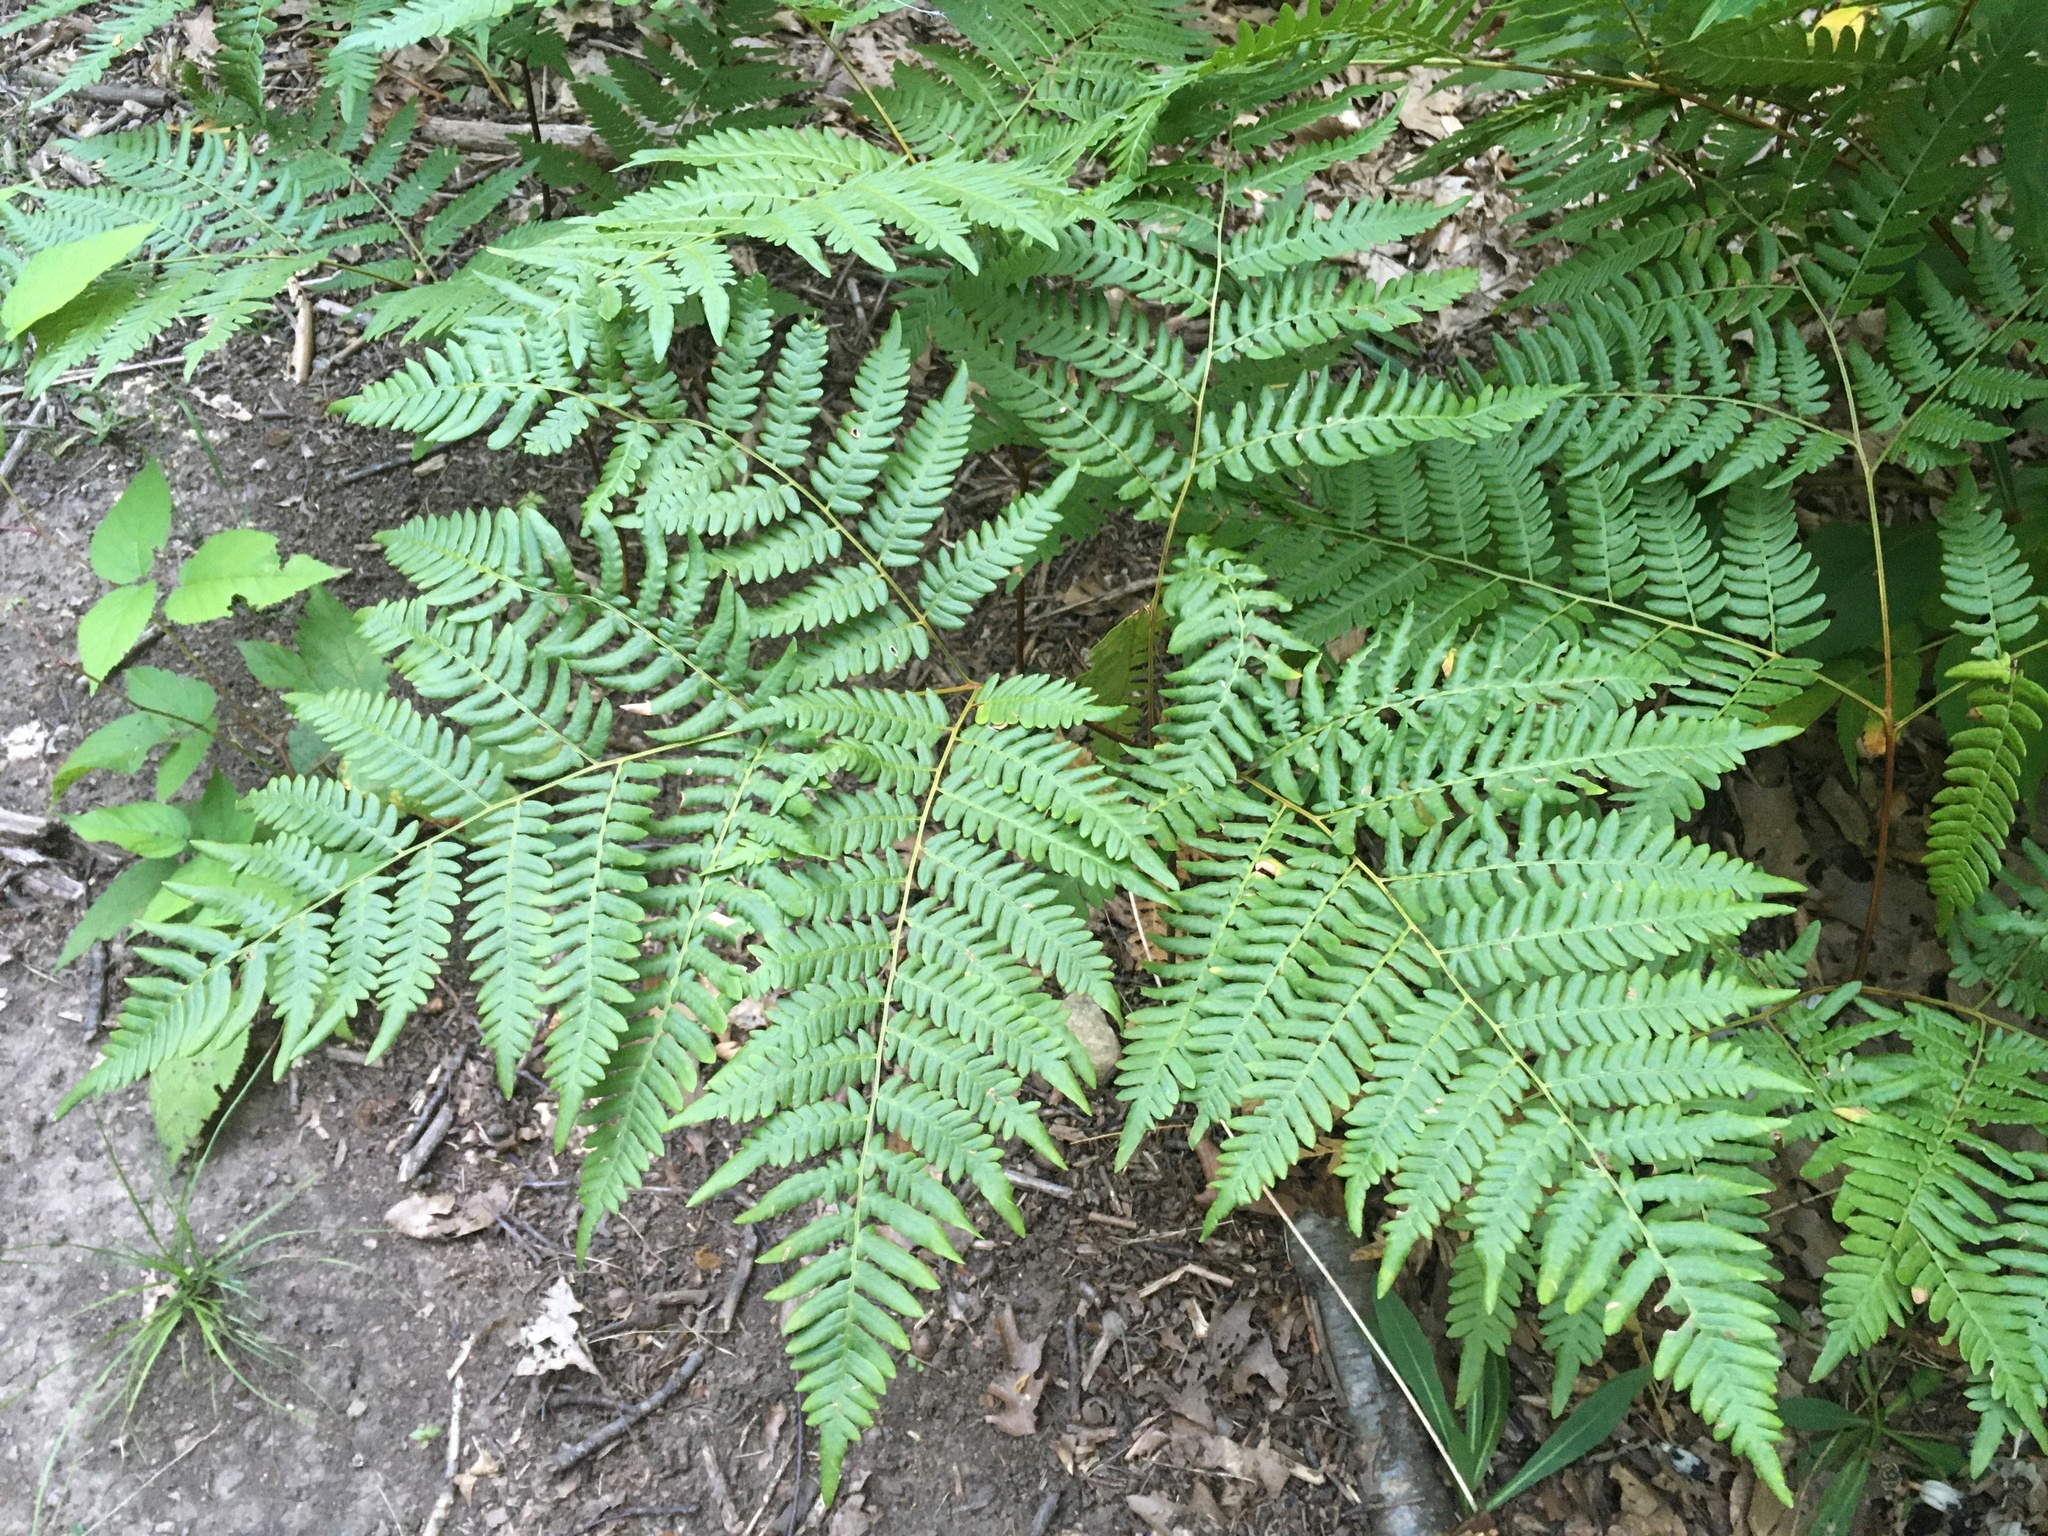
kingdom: Plantae
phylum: Tracheophyta
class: Polypodiopsida
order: Polypodiales
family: Dennstaedtiaceae
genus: Pteridium
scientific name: Pteridium aquilinum
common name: Bracken
